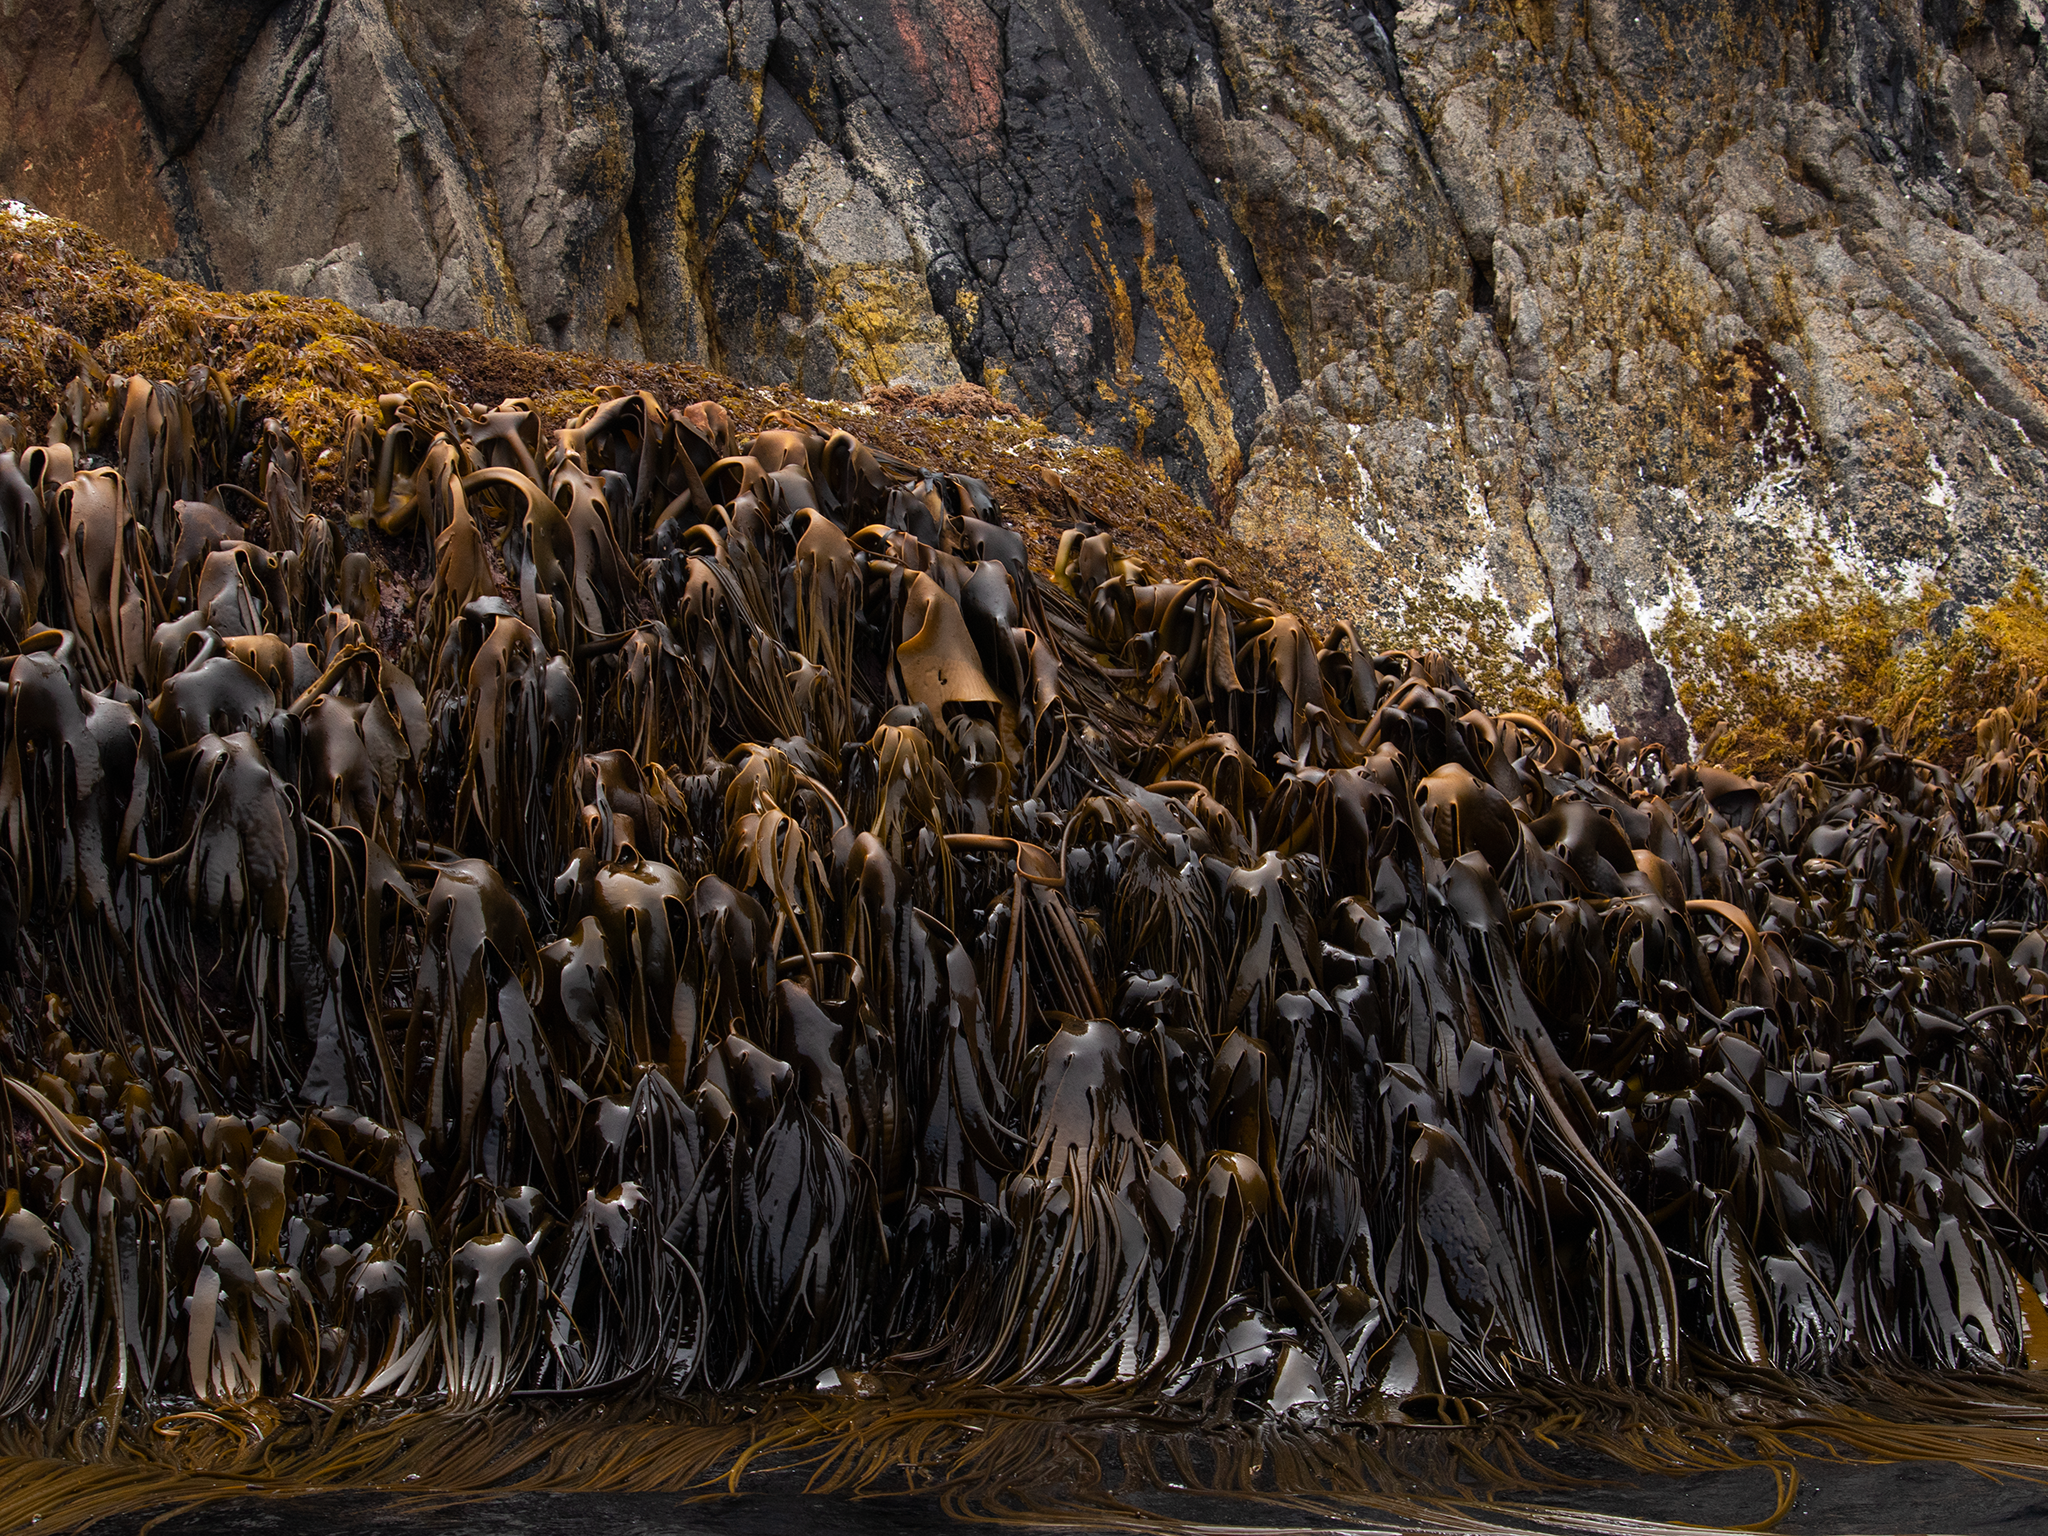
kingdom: Chromista
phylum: Ochrophyta
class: Phaeophyceae
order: Fucales
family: Durvillaeaceae
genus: Durvillaea
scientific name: Durvillaea antarctica
